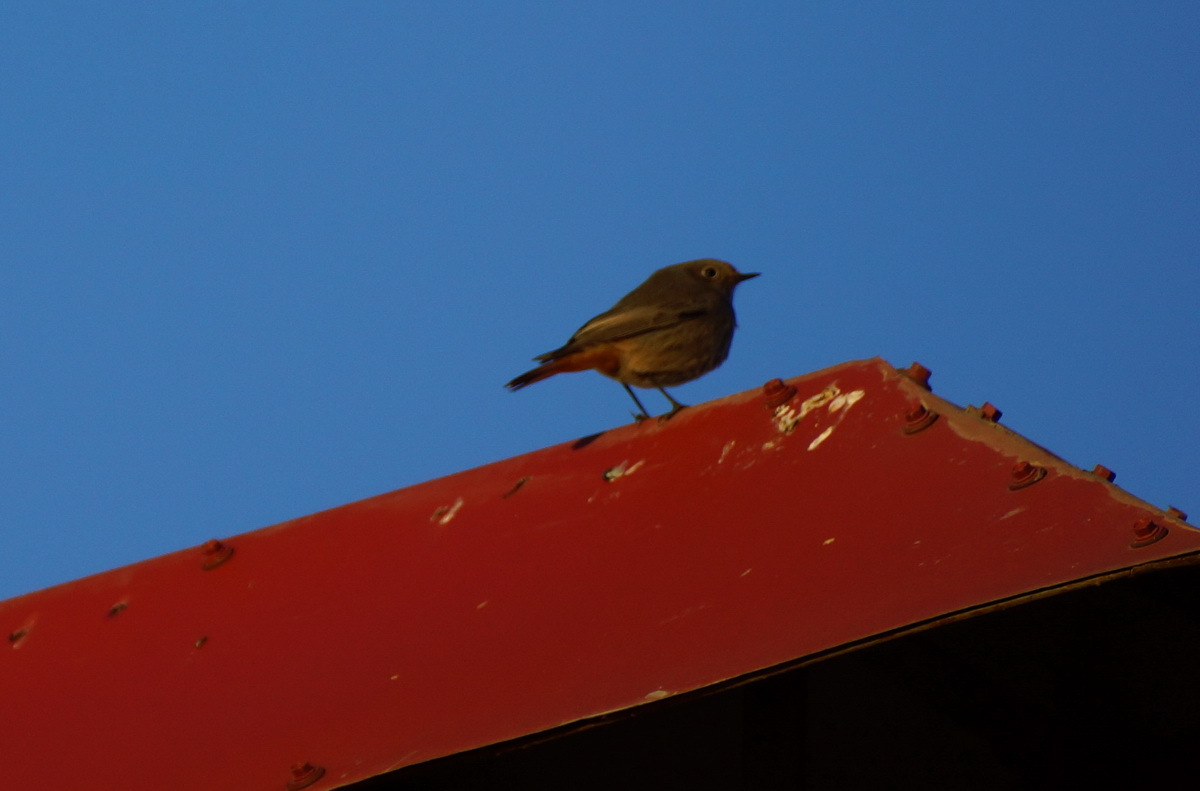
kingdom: Animalia
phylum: Chordata
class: Aves
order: Passeriformes
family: Muscicapidae
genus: Phoenicurus
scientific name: Phoenicurus ochruros
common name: Black redstart
